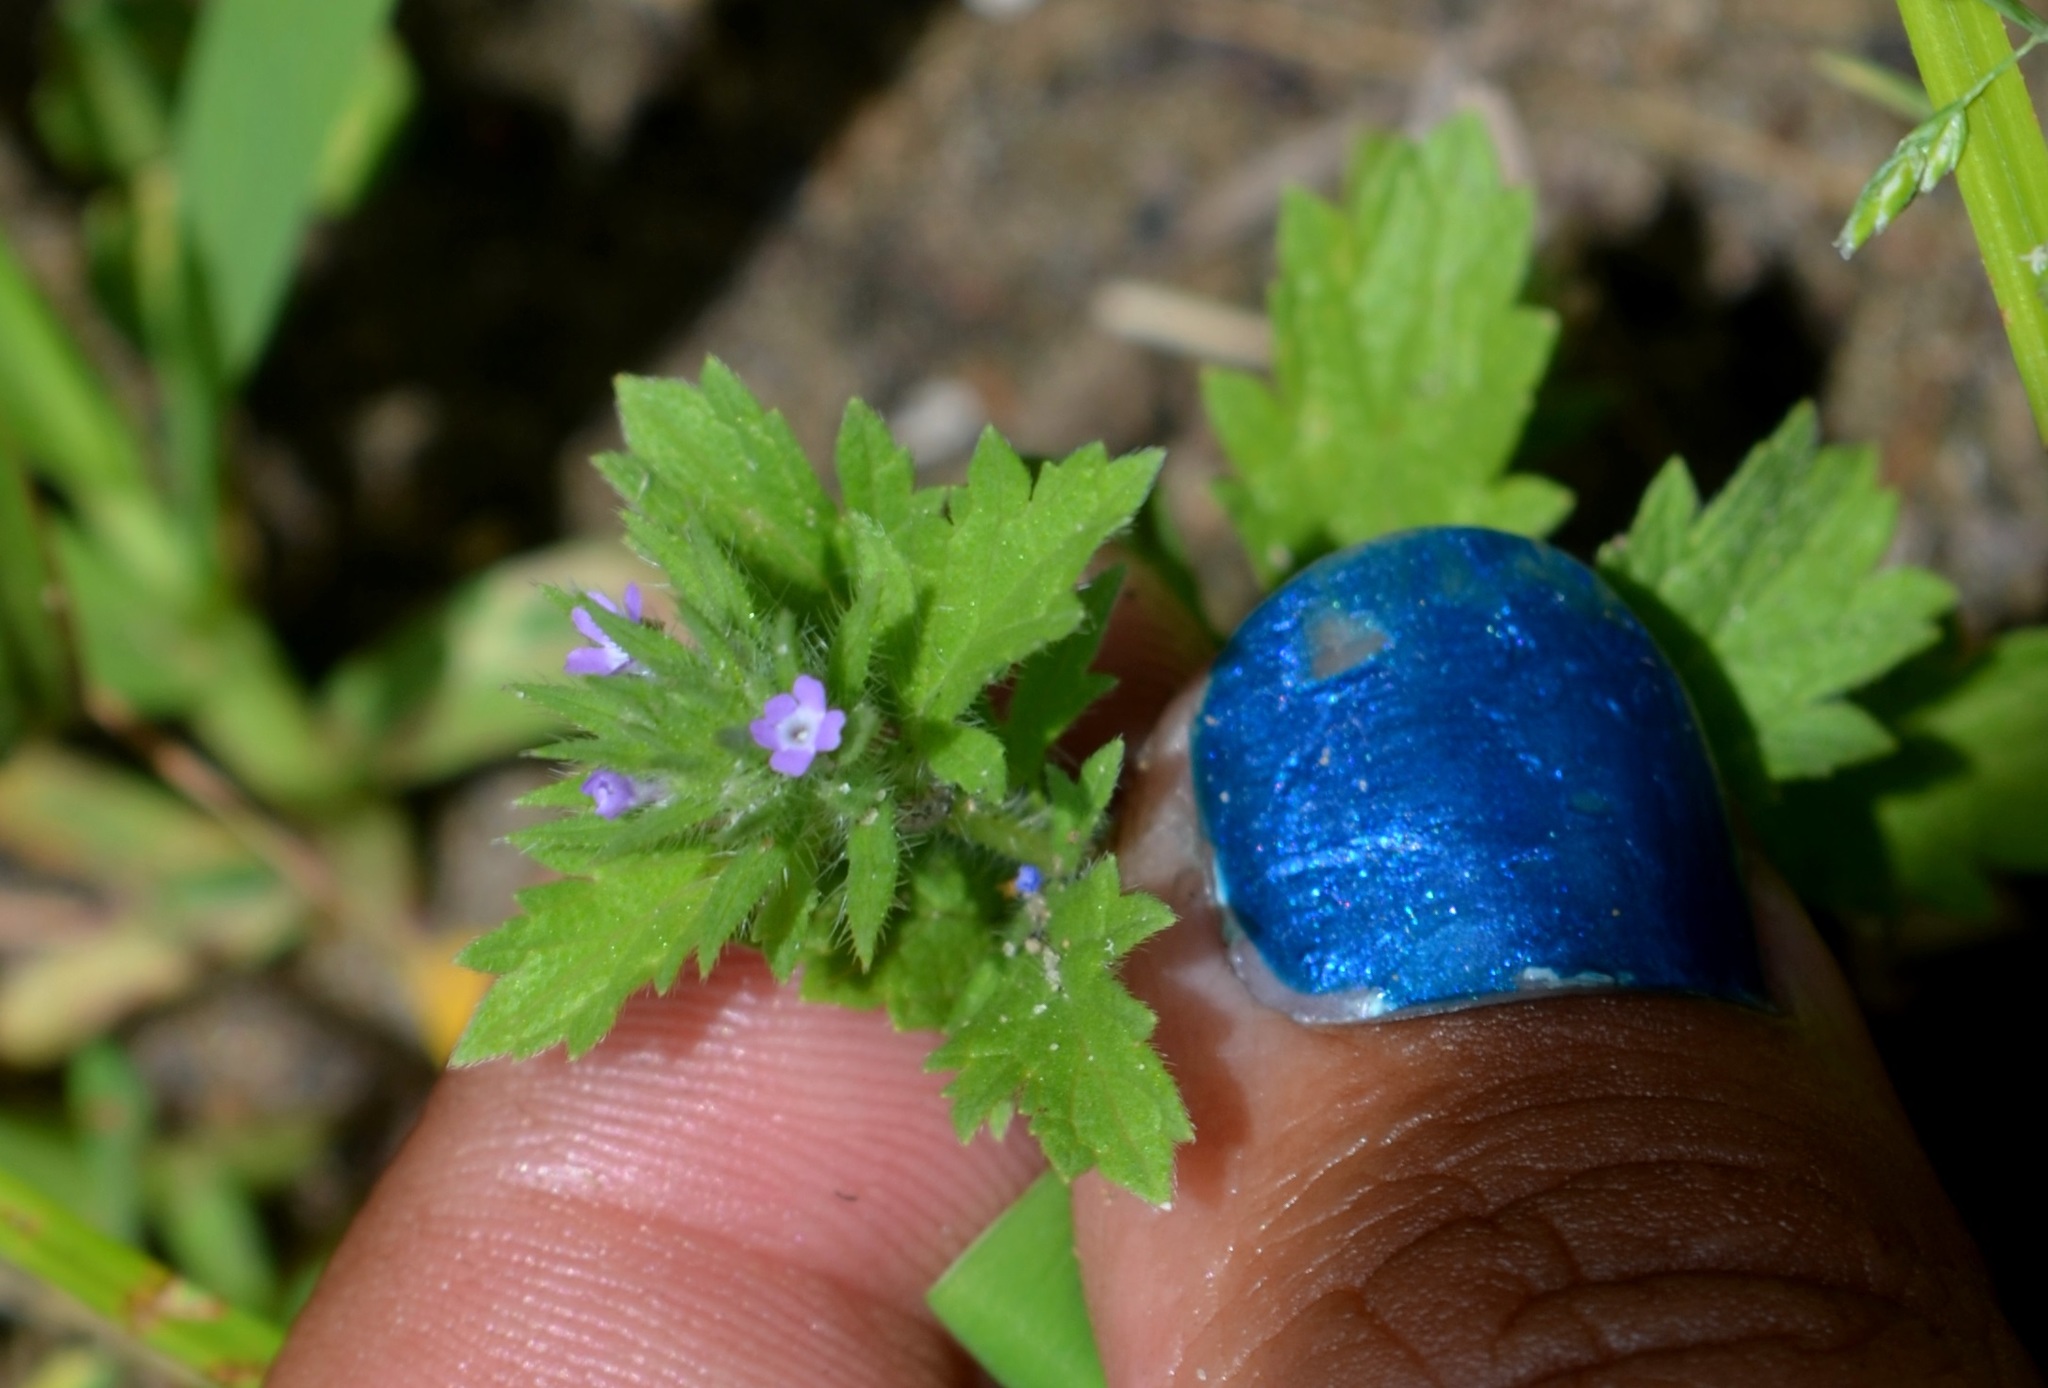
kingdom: Plantae
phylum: Tracheophyta
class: Magnoliopsida
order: Lamiales
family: Verbenaceae
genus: Verbena
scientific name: Verbena bracteata
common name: Bracted vervain
